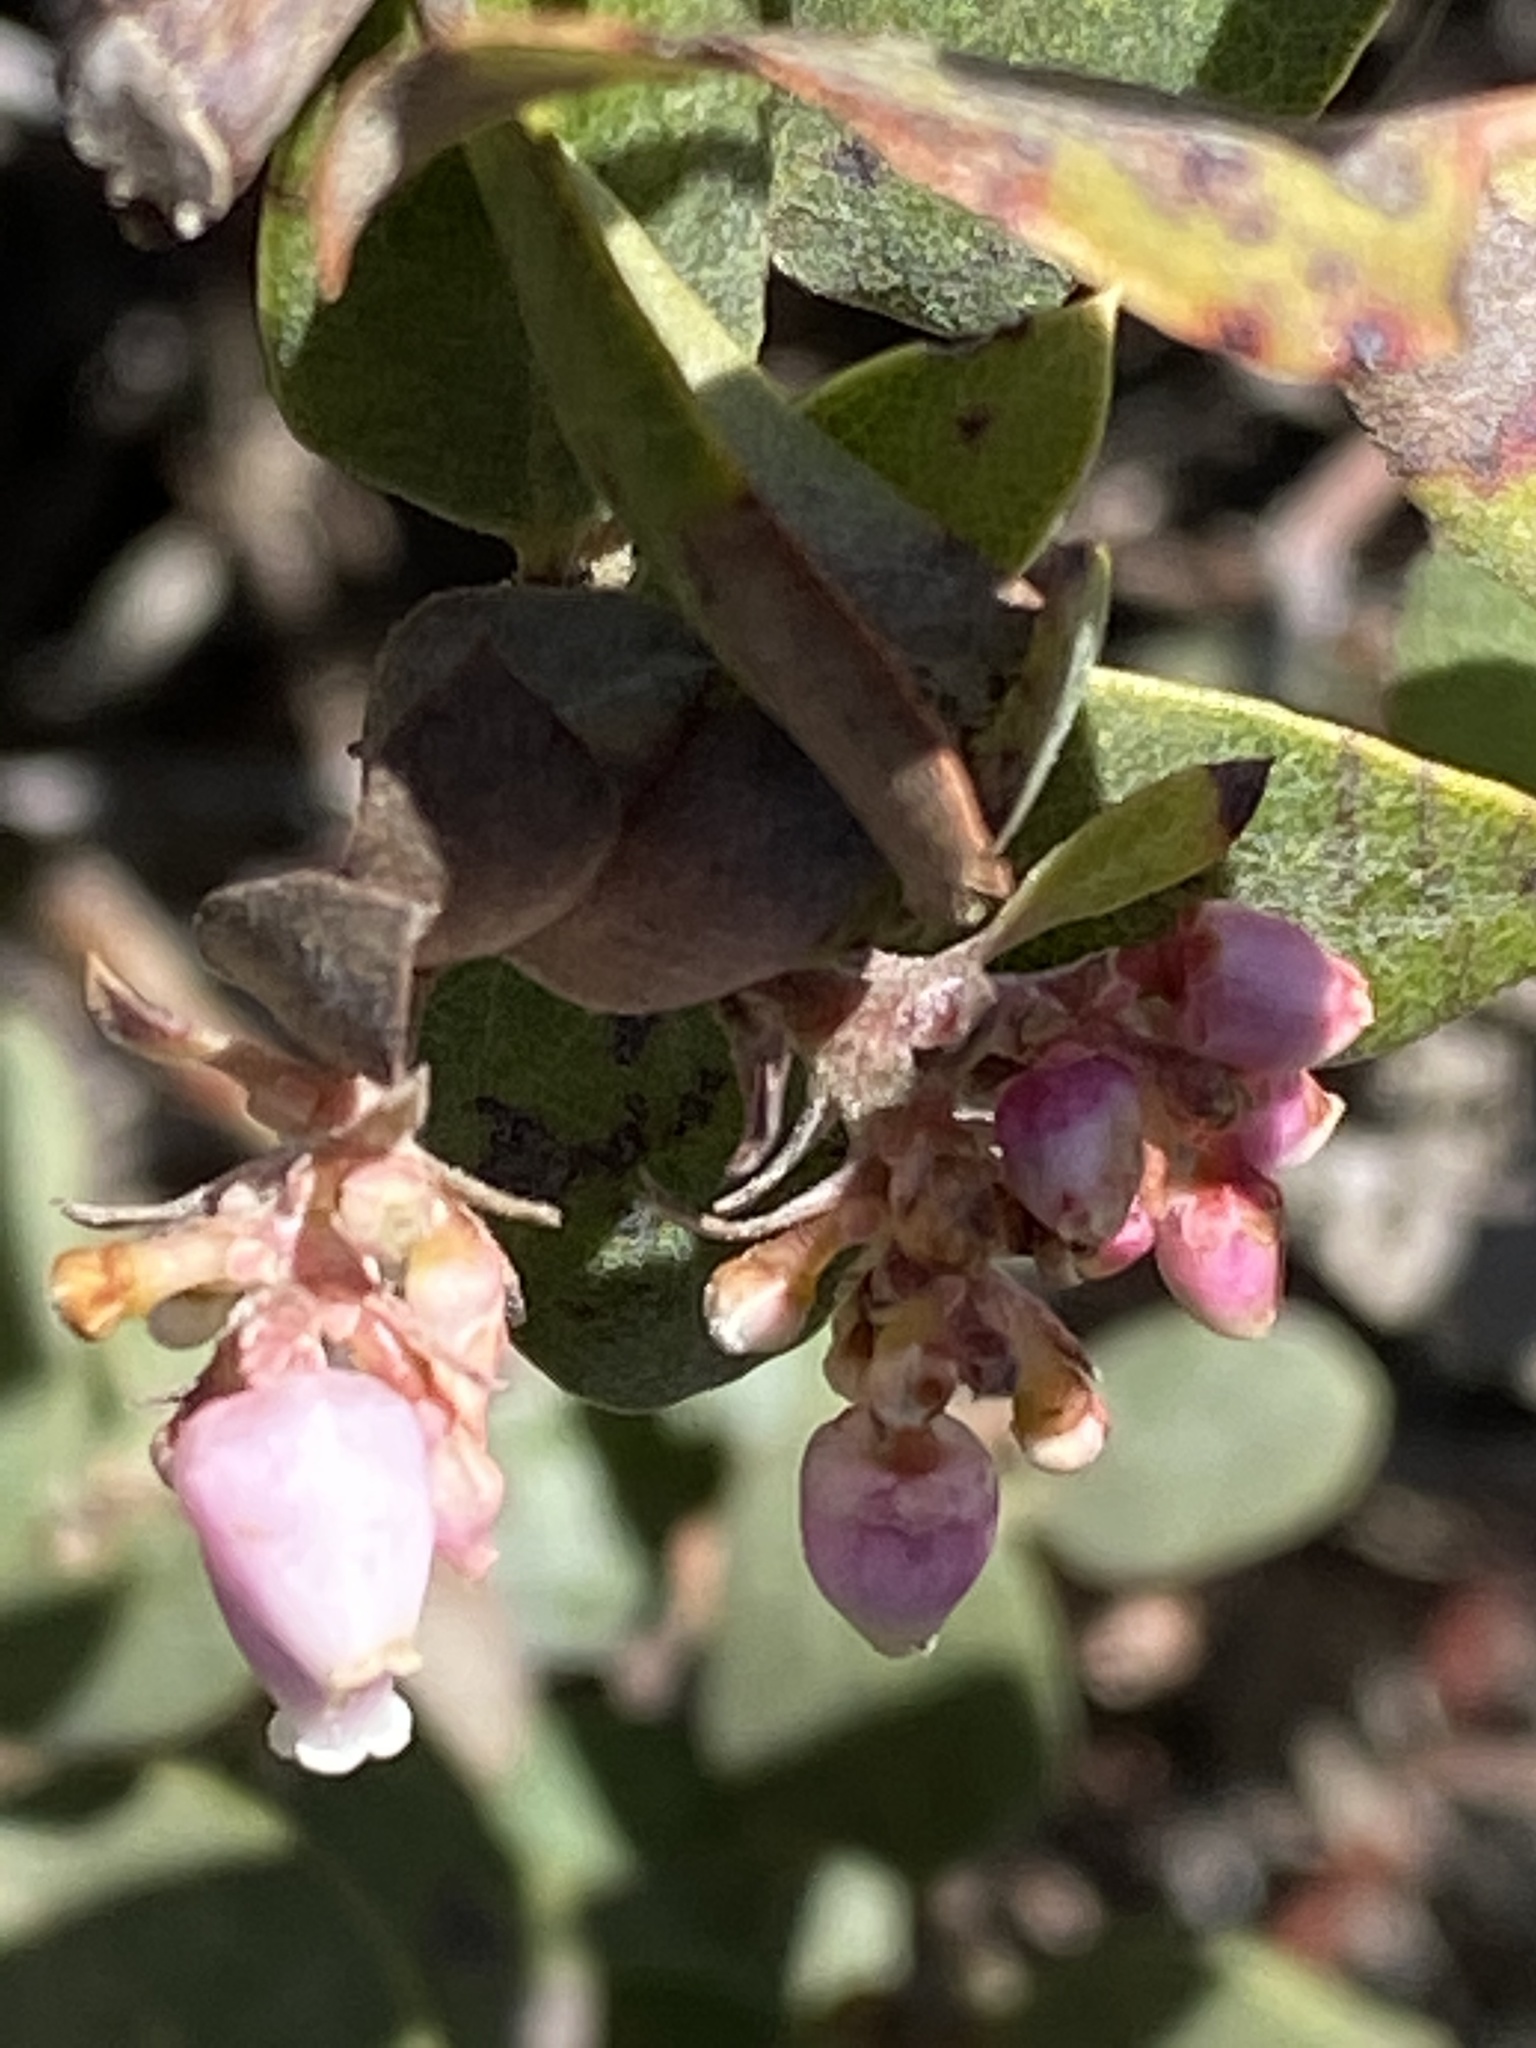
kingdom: Plantae
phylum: Tracheophyta
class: Magnoliopsida
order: Ericales
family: Ericaceae
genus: Arctostaphylos
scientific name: Arctostaphylos morroensis
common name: Morro manzanita
